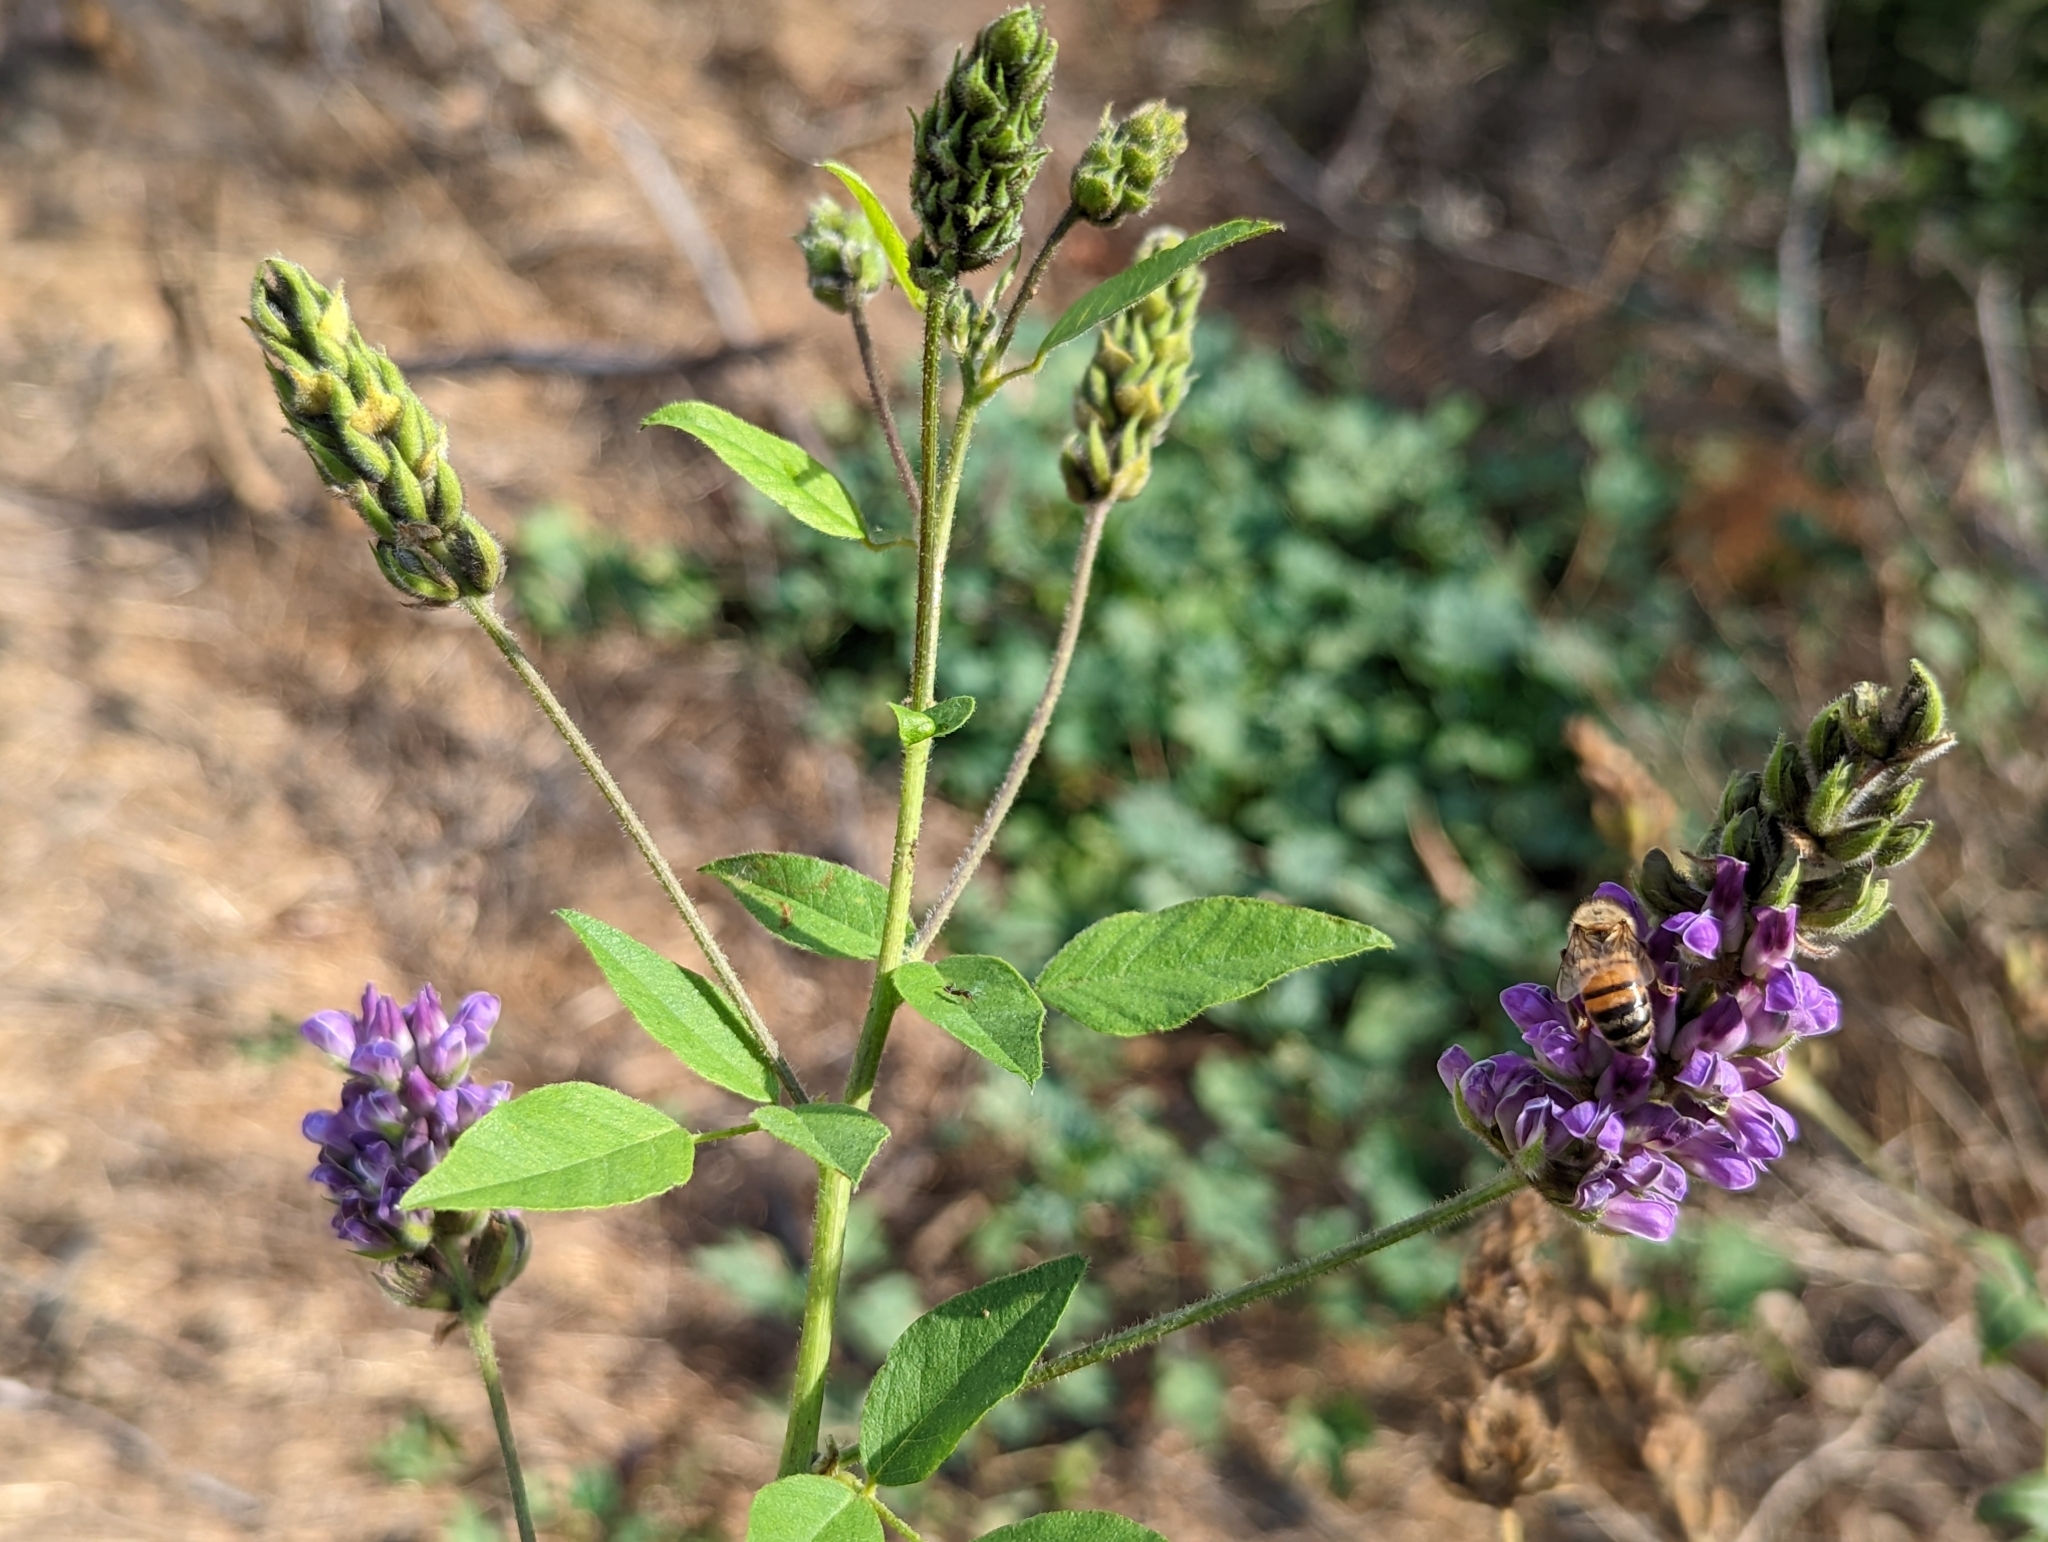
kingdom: Plantae
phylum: Tracheophyta
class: Magnoliopsida
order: Fabales
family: Fabaceae
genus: Hoita
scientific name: Hoita macrostachya
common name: Leatherroot
